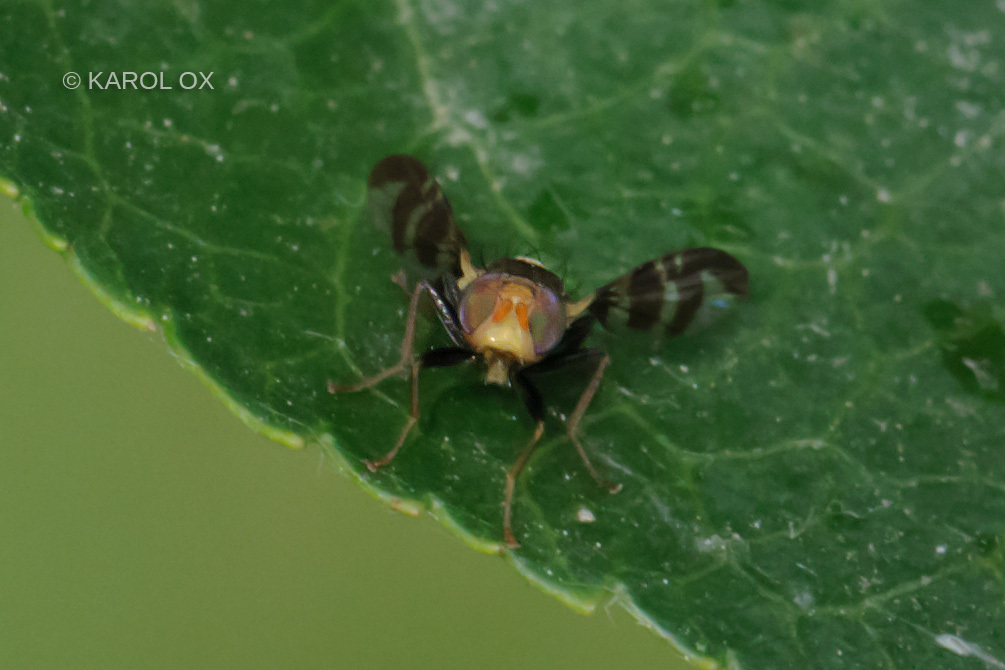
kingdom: Animalia
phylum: Arthropoda
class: Insecta
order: Diptera
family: Tephritidae
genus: Rhagoletis
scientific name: Rhagoletis cerasi
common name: European cherry fruit fly
